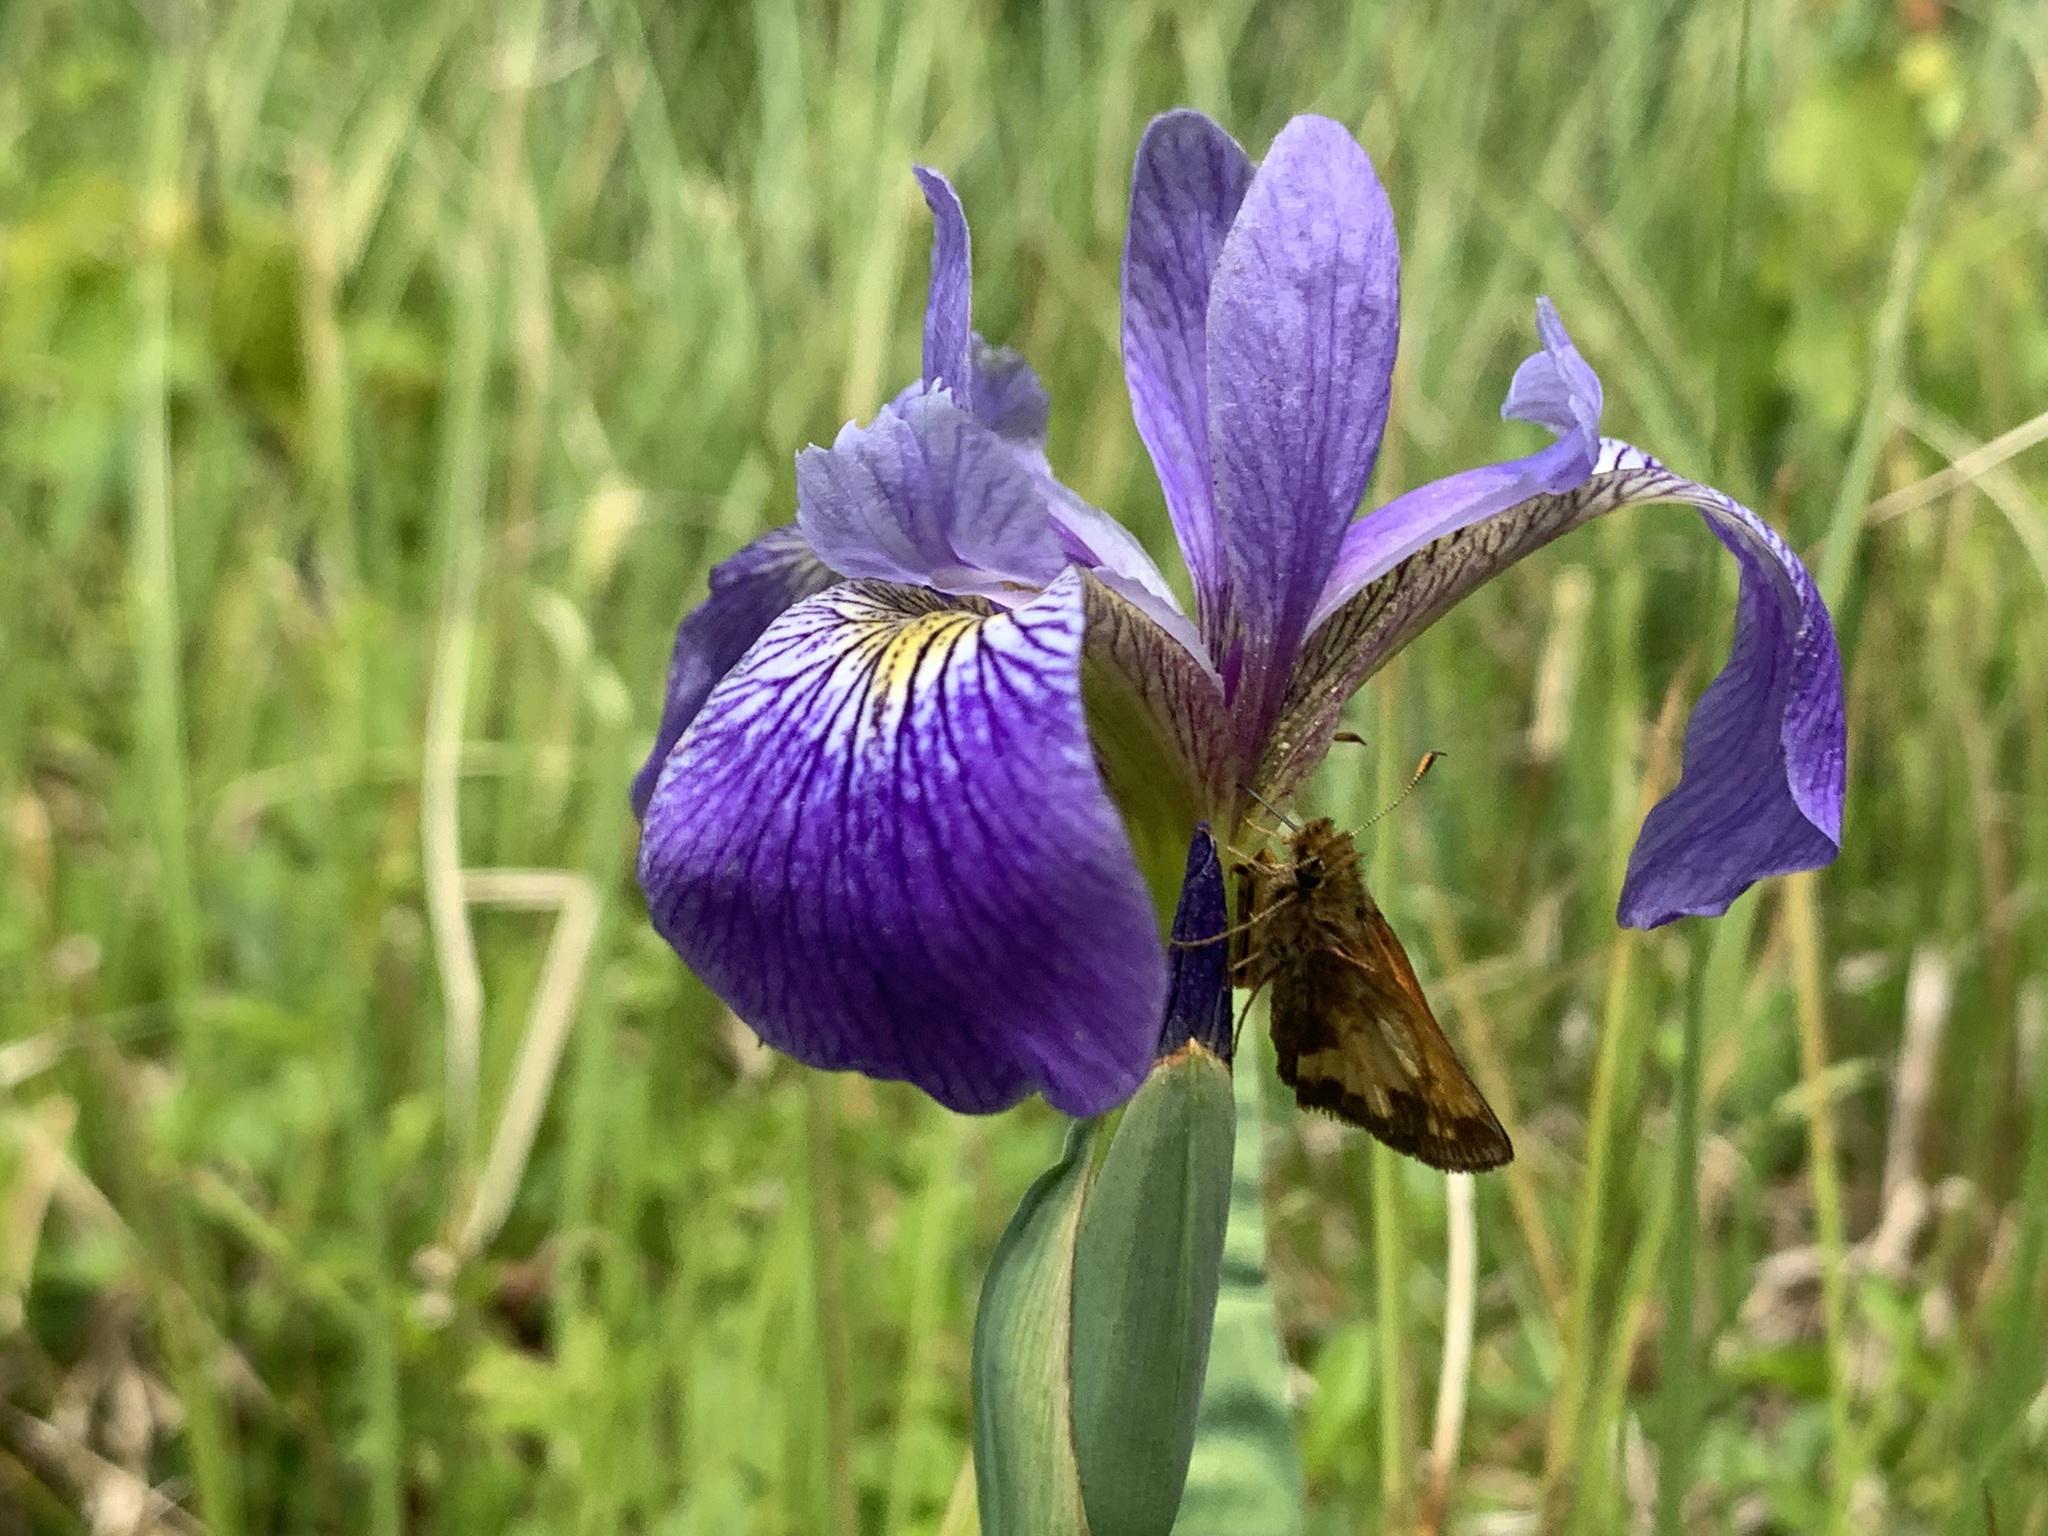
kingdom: Plantae
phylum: Tracheophyta
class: Liliopsida
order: Asparagales
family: Iridaceae
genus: Iris
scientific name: Iris versicolor
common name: Purple iris
